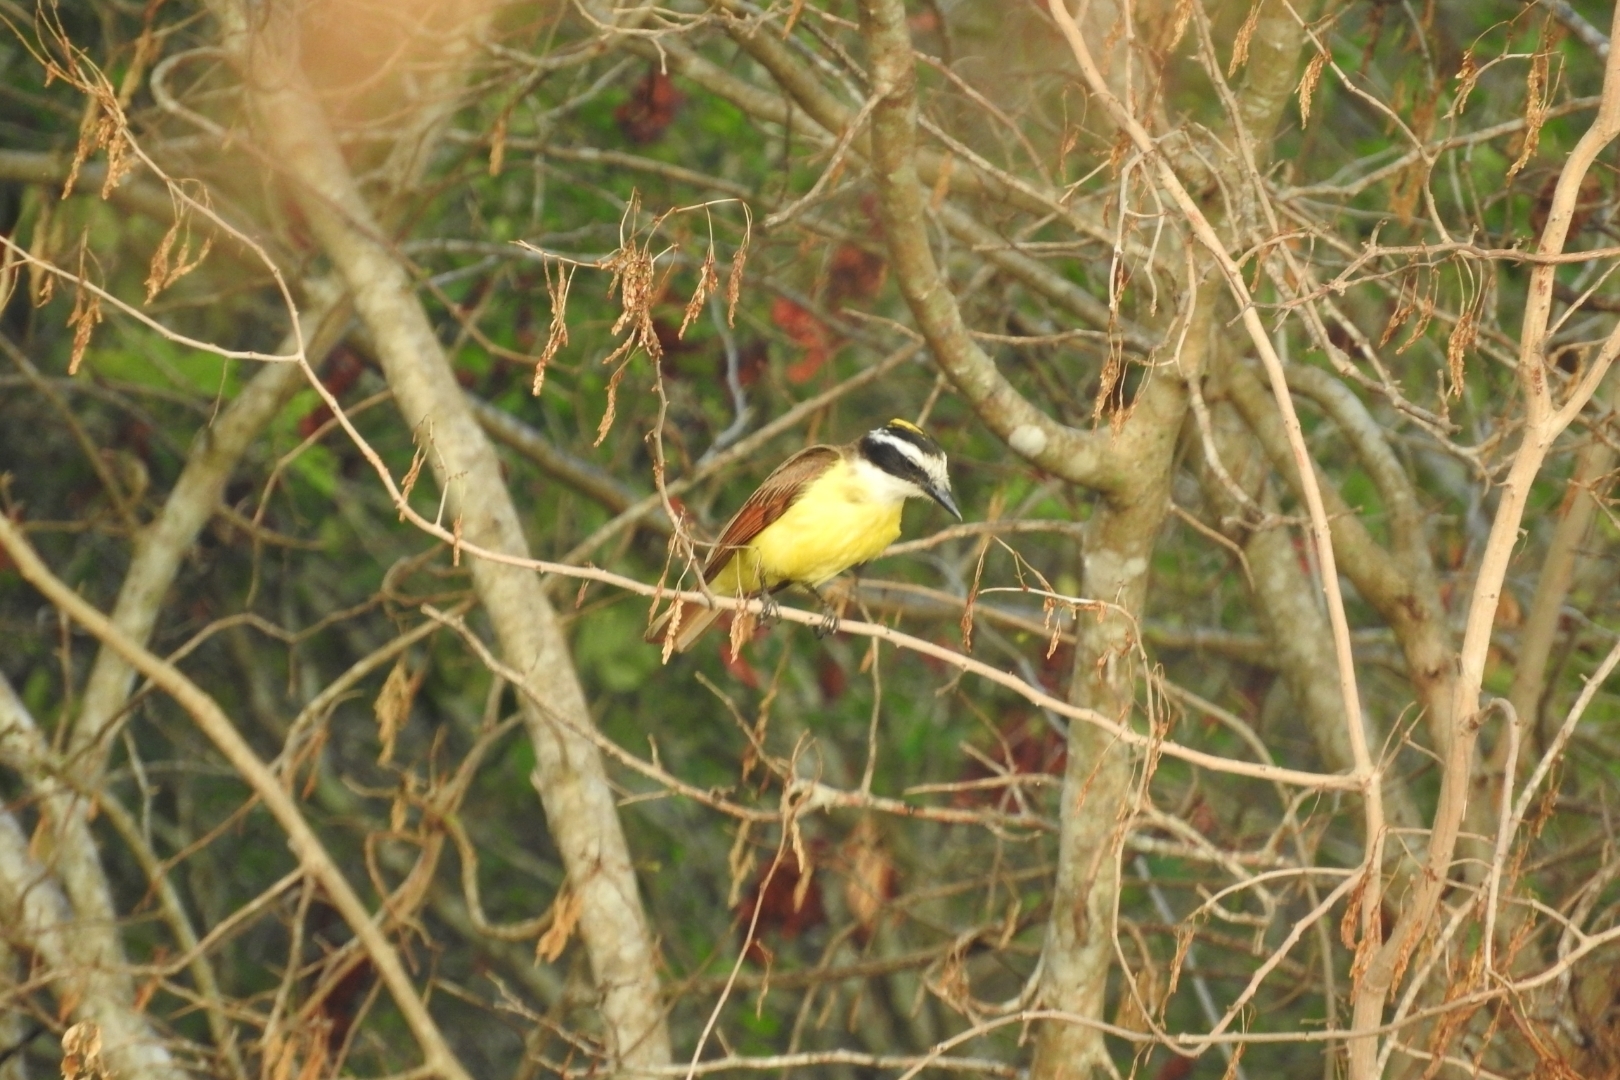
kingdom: Animalia
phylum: Chordata
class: Aves
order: Passeriformes
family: Tyrannidae
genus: Pitangus
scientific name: Pitangus sulphuratus
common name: Great kiskadee
